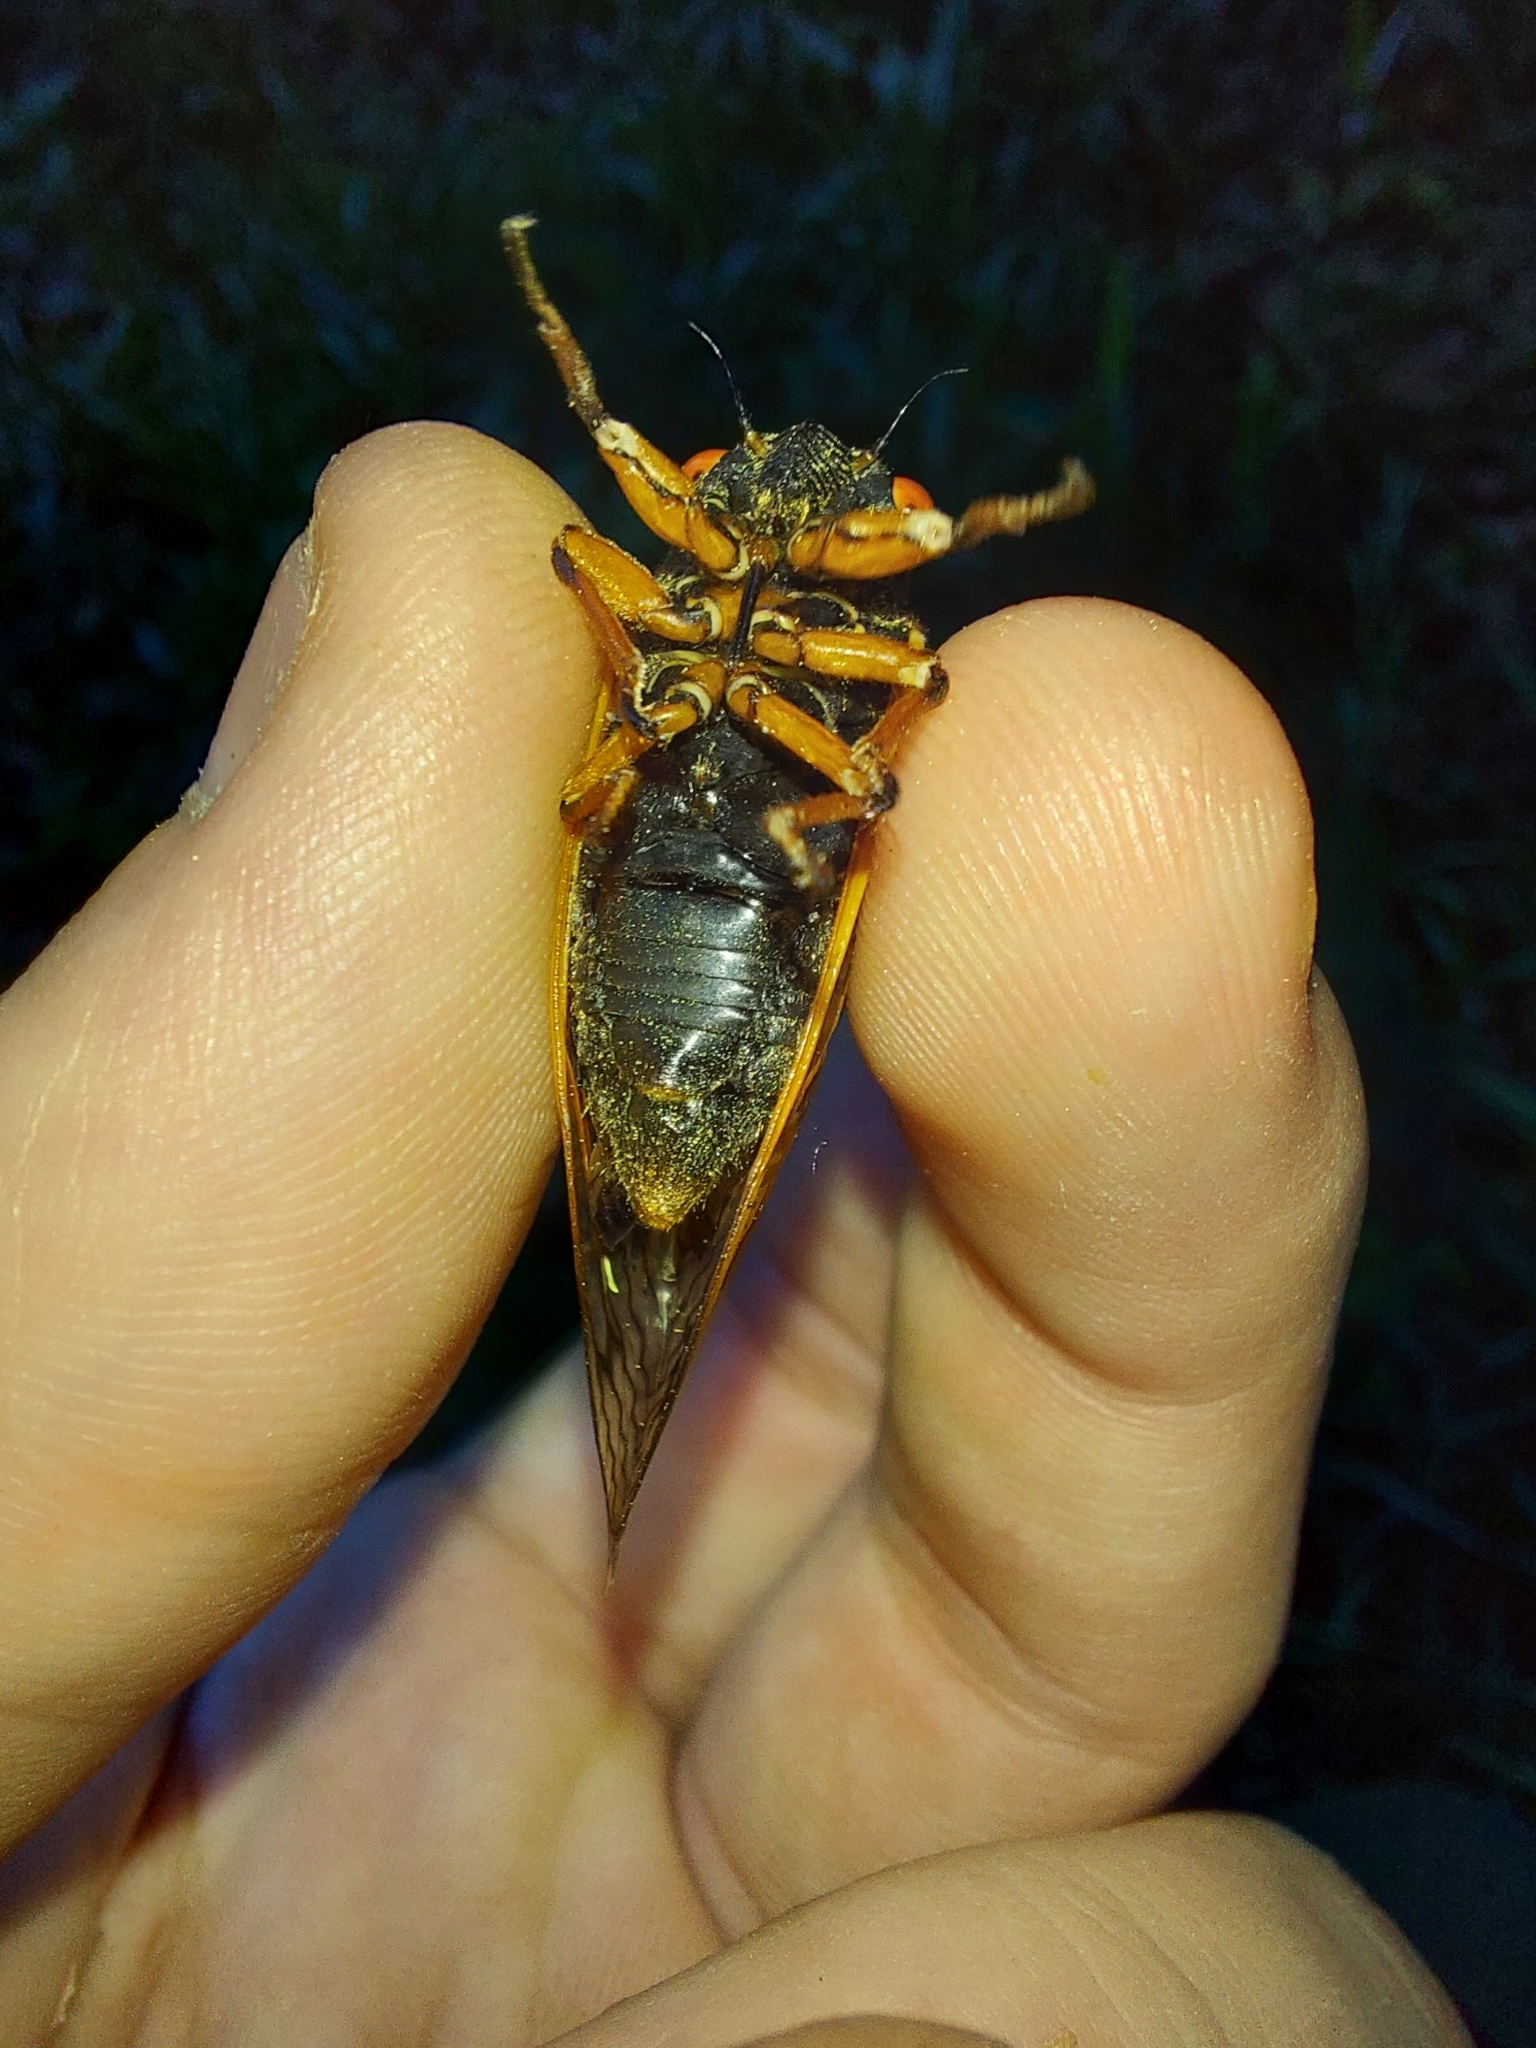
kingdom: Animalia
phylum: Arthropoda
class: Insecta
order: Hemiptera
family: Cicadidae
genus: Magicicada
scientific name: Magicicada cassini
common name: Cassin's 17-year cicada
